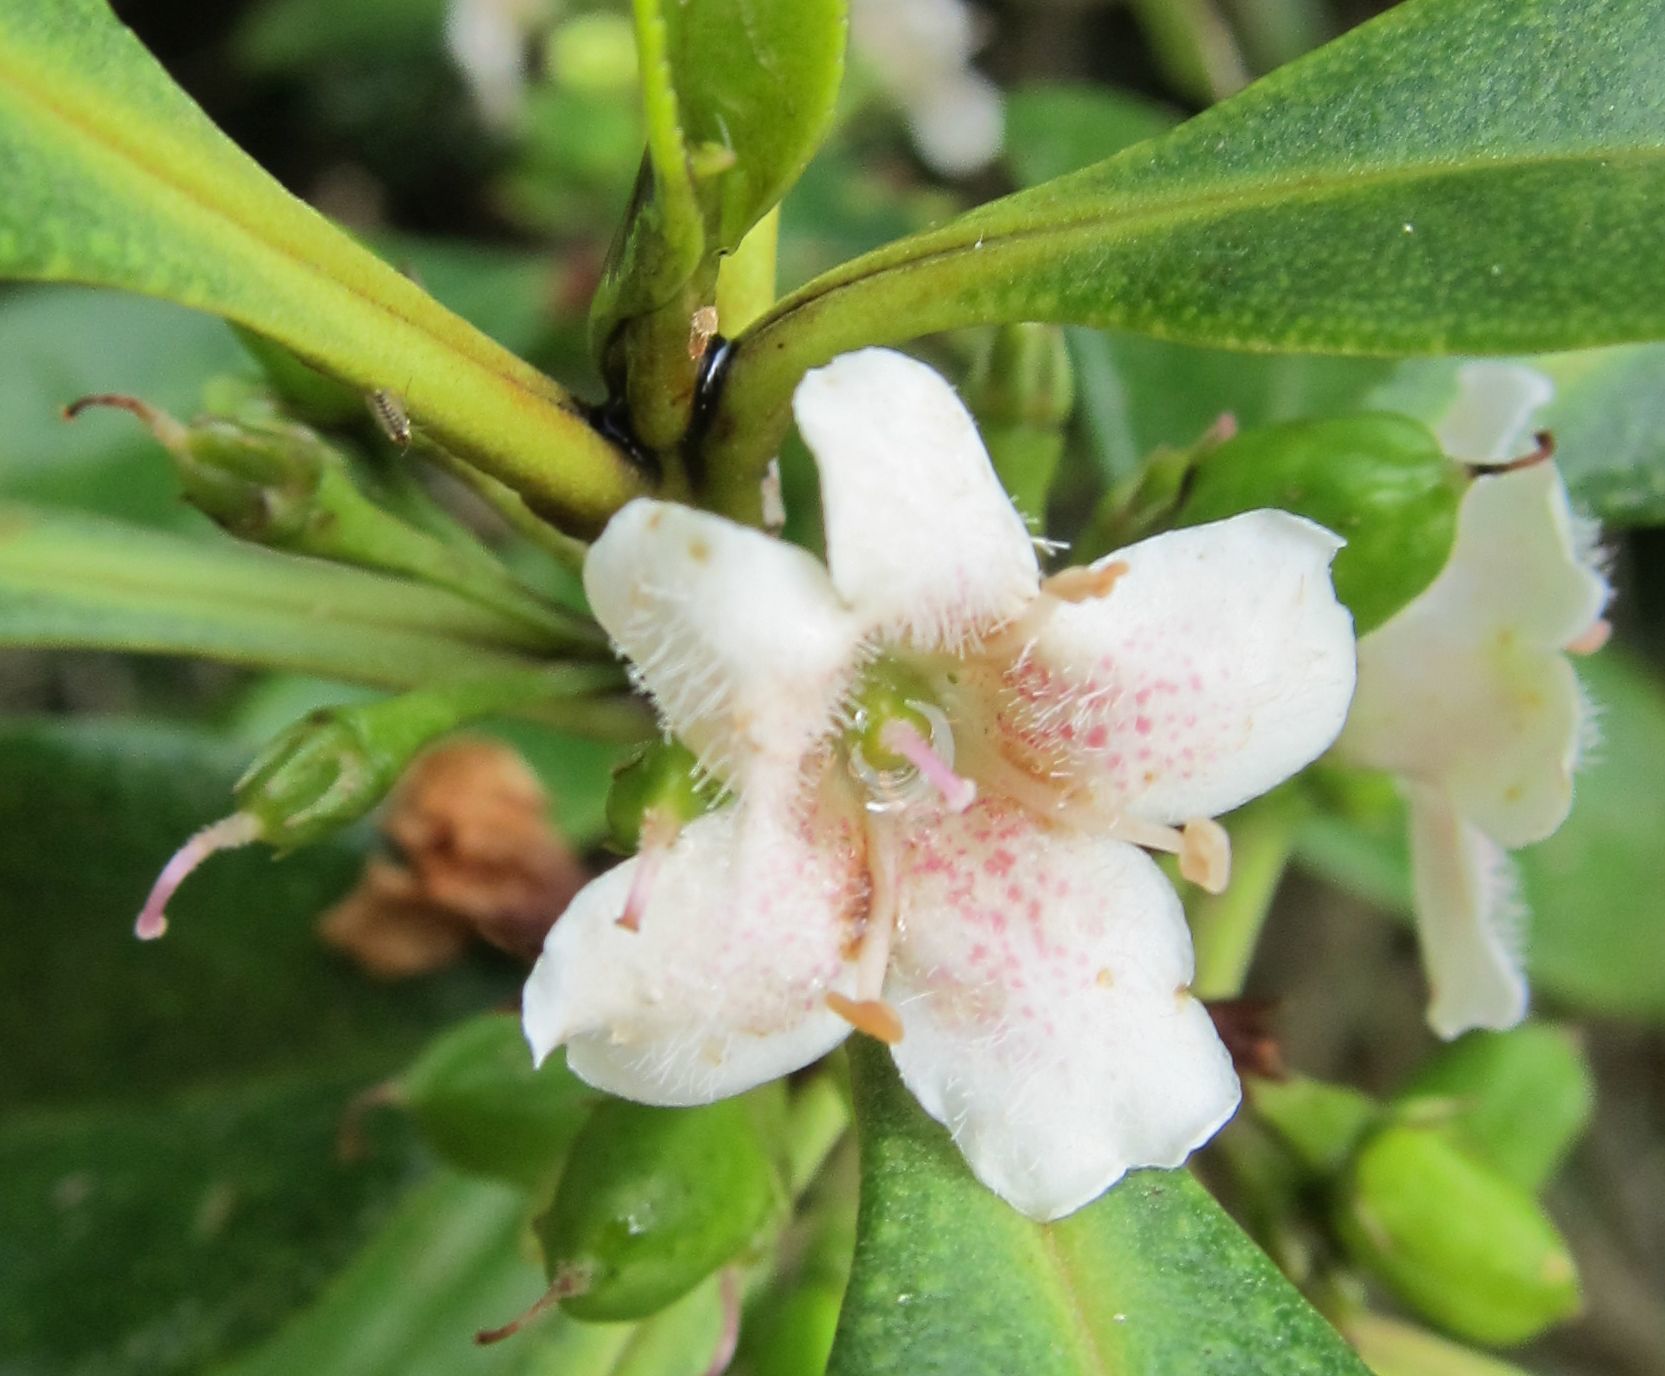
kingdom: Plantae
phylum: Tracheophyta
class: Magnoliopsida
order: Lamiales
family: Scrophulariaceae
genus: Myoporum
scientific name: Myoporum laetum
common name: Ngaio tree
